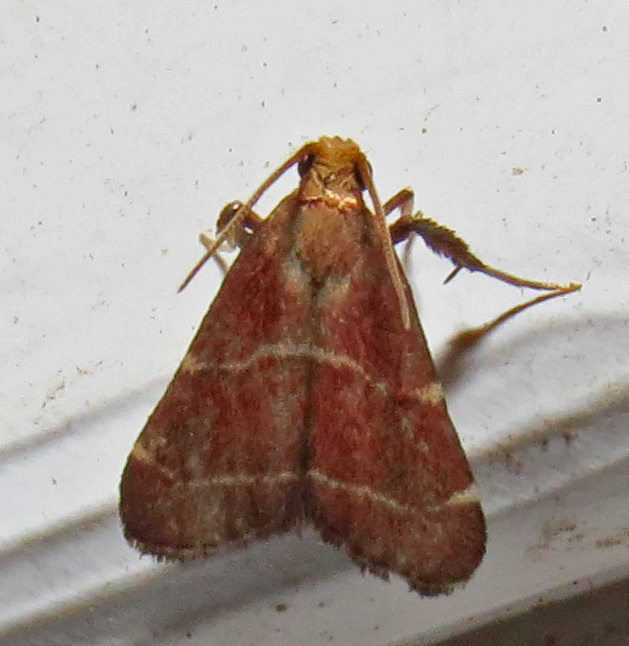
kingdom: Animalia
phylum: Arthropoda
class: Insecta
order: Lepidoptera
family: Pyralidae
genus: Arta
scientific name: Arta statalis
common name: Posturing arta moth
